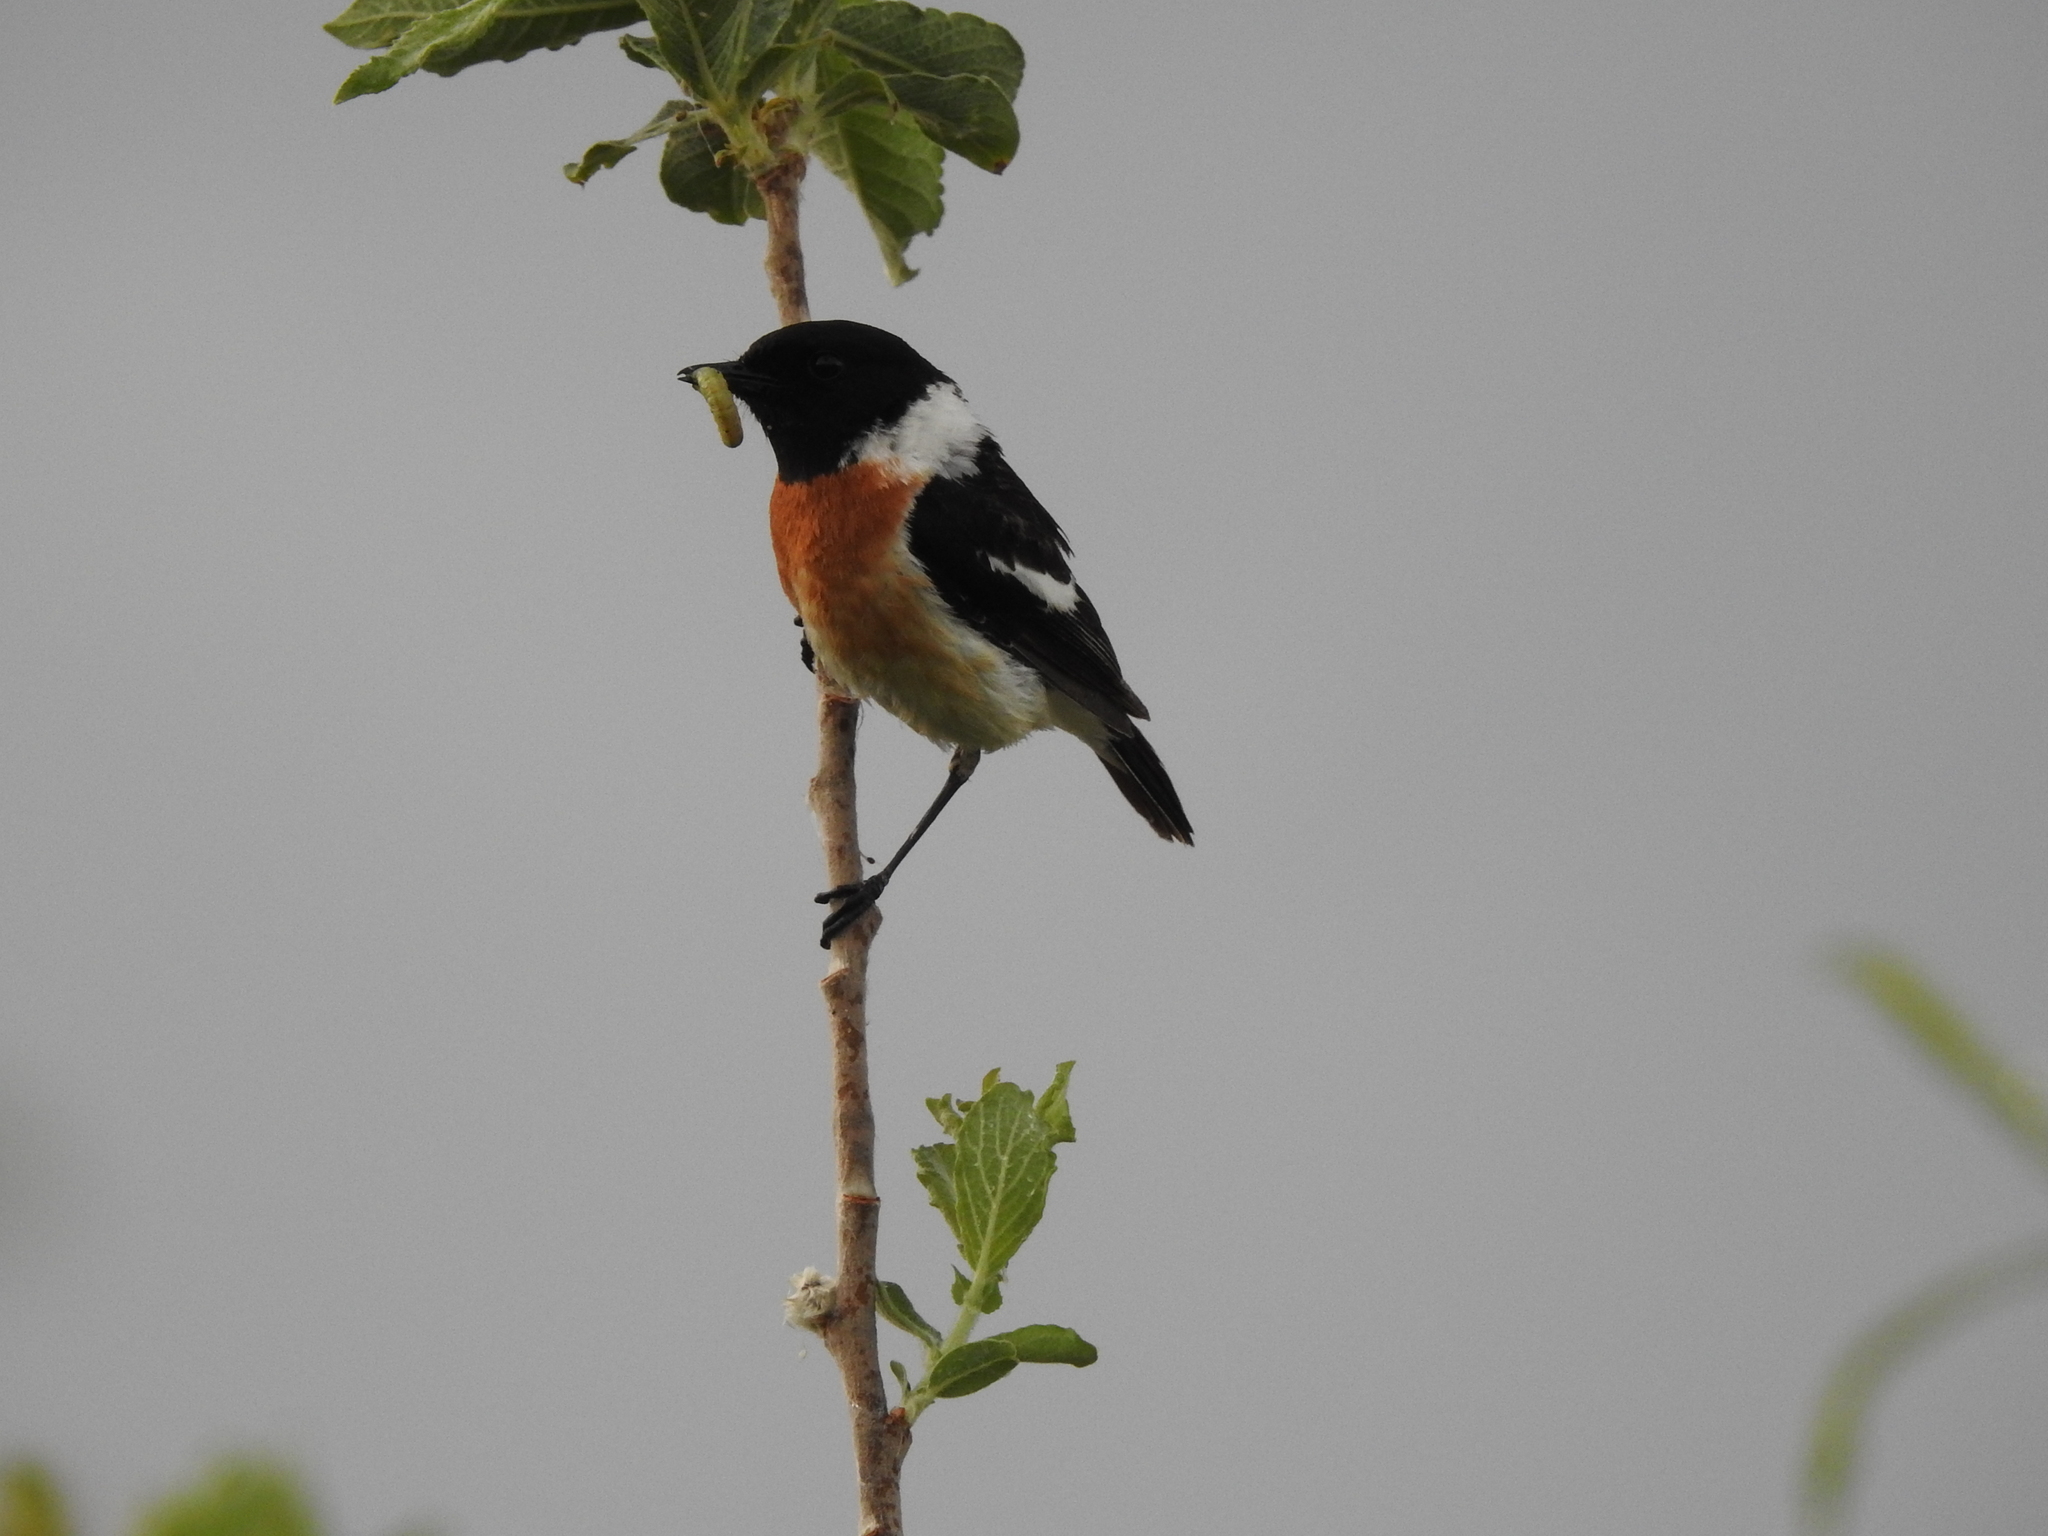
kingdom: Animalia
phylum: Chordata
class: Aves
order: Passeriformes
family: Muscicapidae
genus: Saxicola
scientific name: Saxicola maurus
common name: Siberian stonechat
